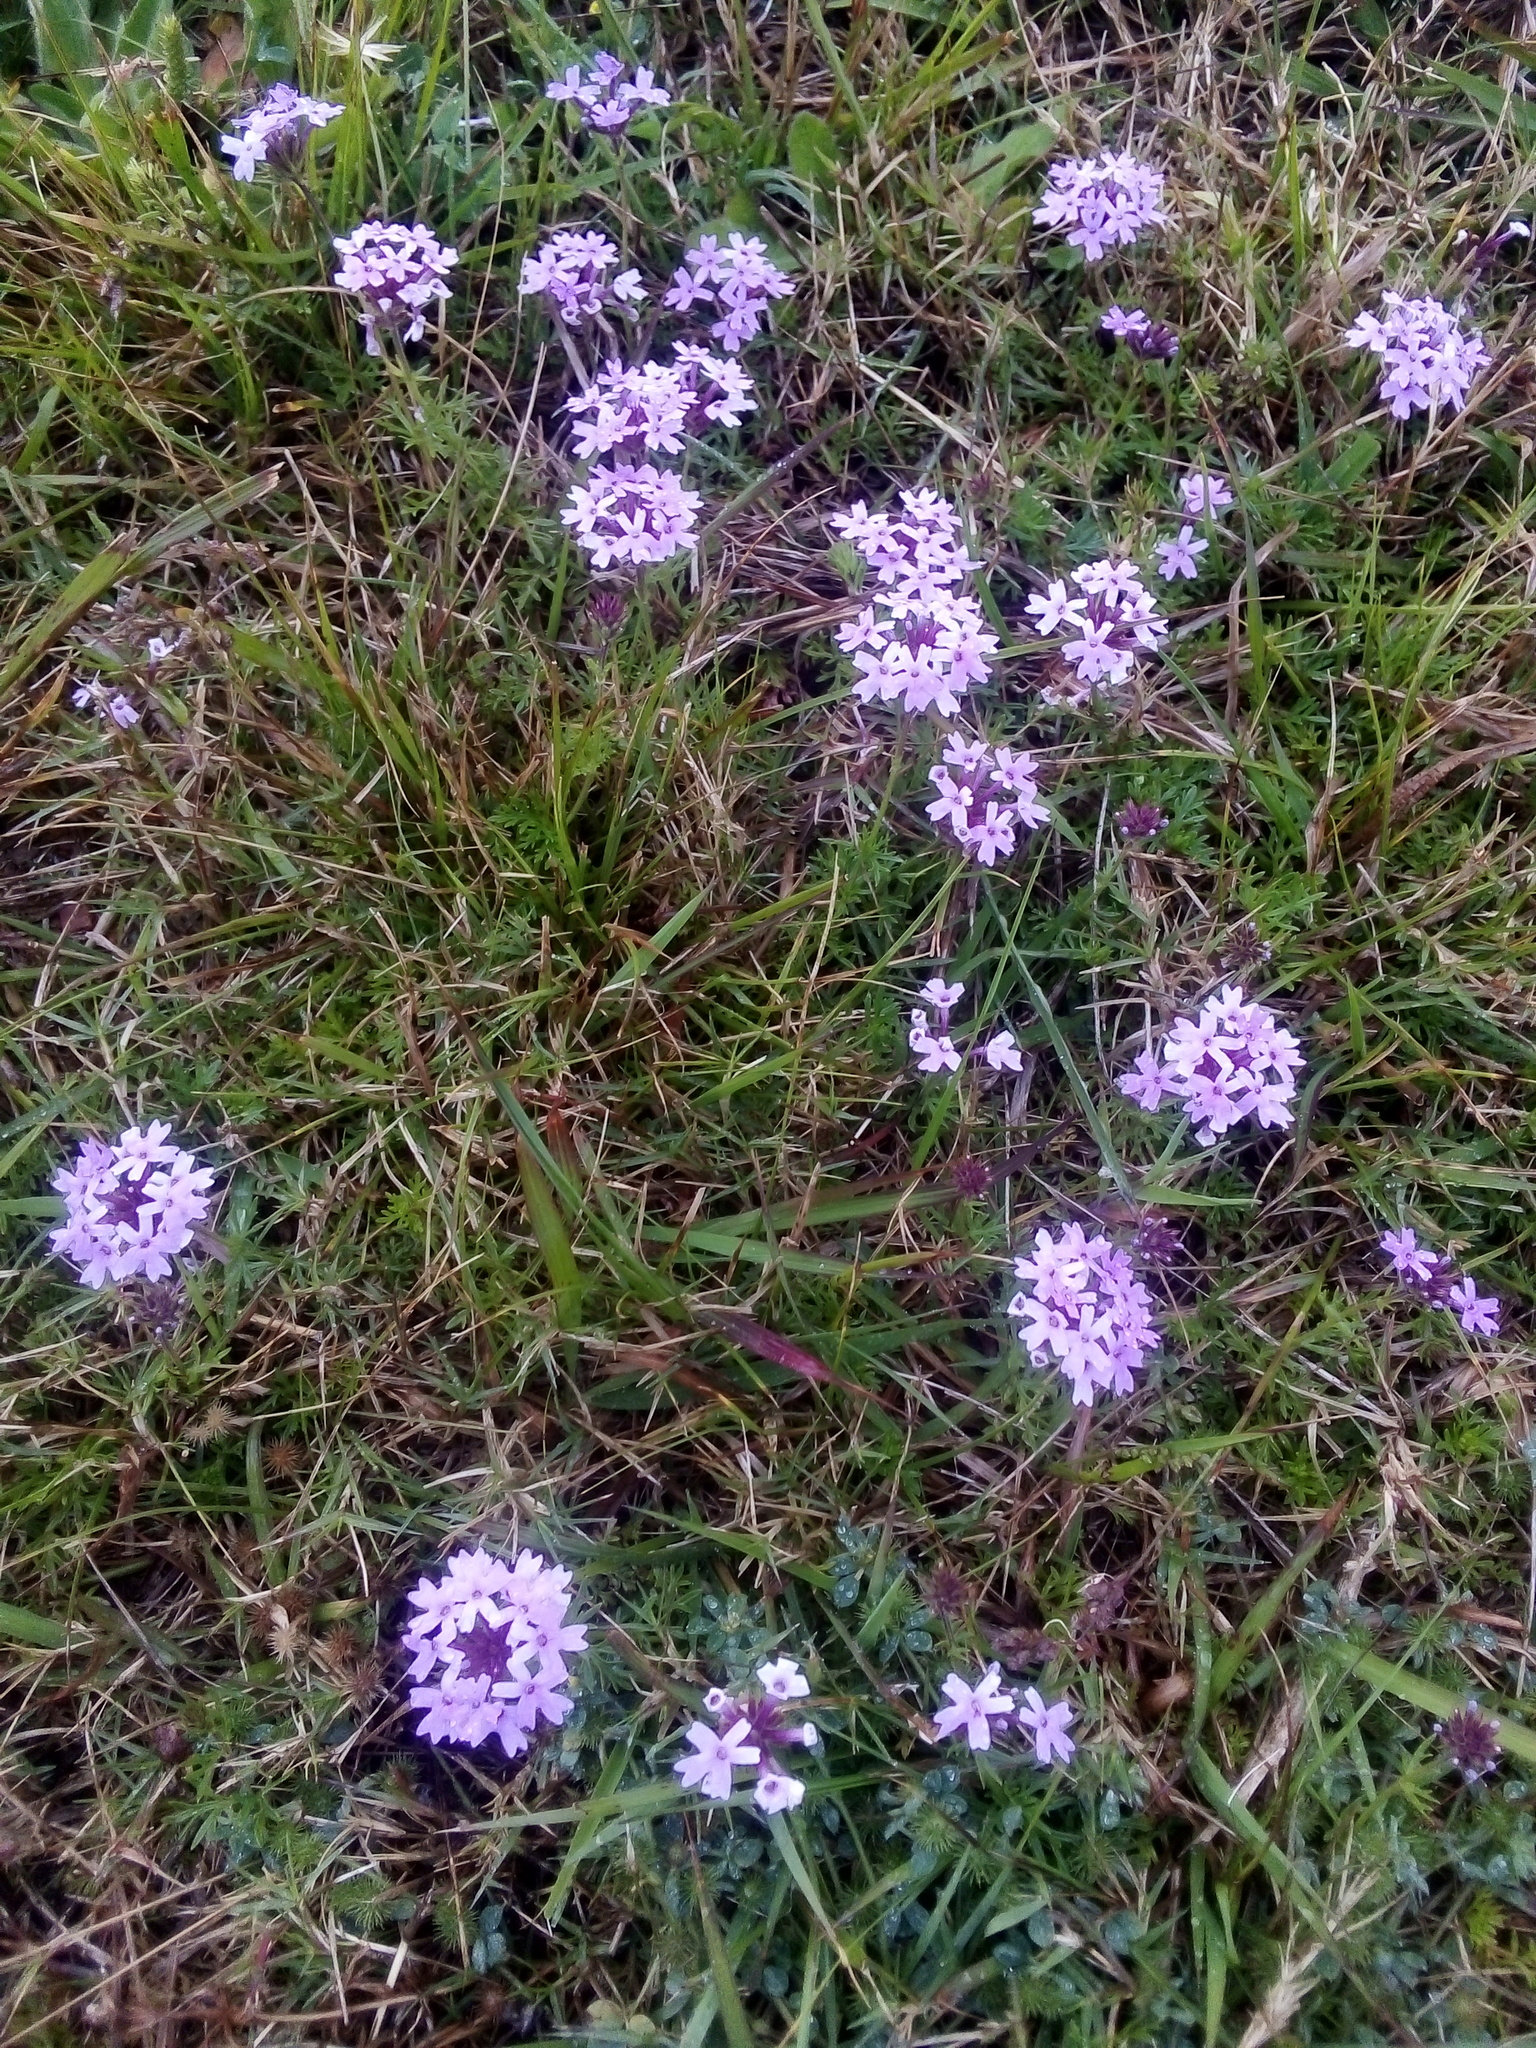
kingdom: Plantae
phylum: Tracheophyta
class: Magnoliopsida
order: Lamiales
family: Verbenaceae
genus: Verbena
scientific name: Verbena selloi
